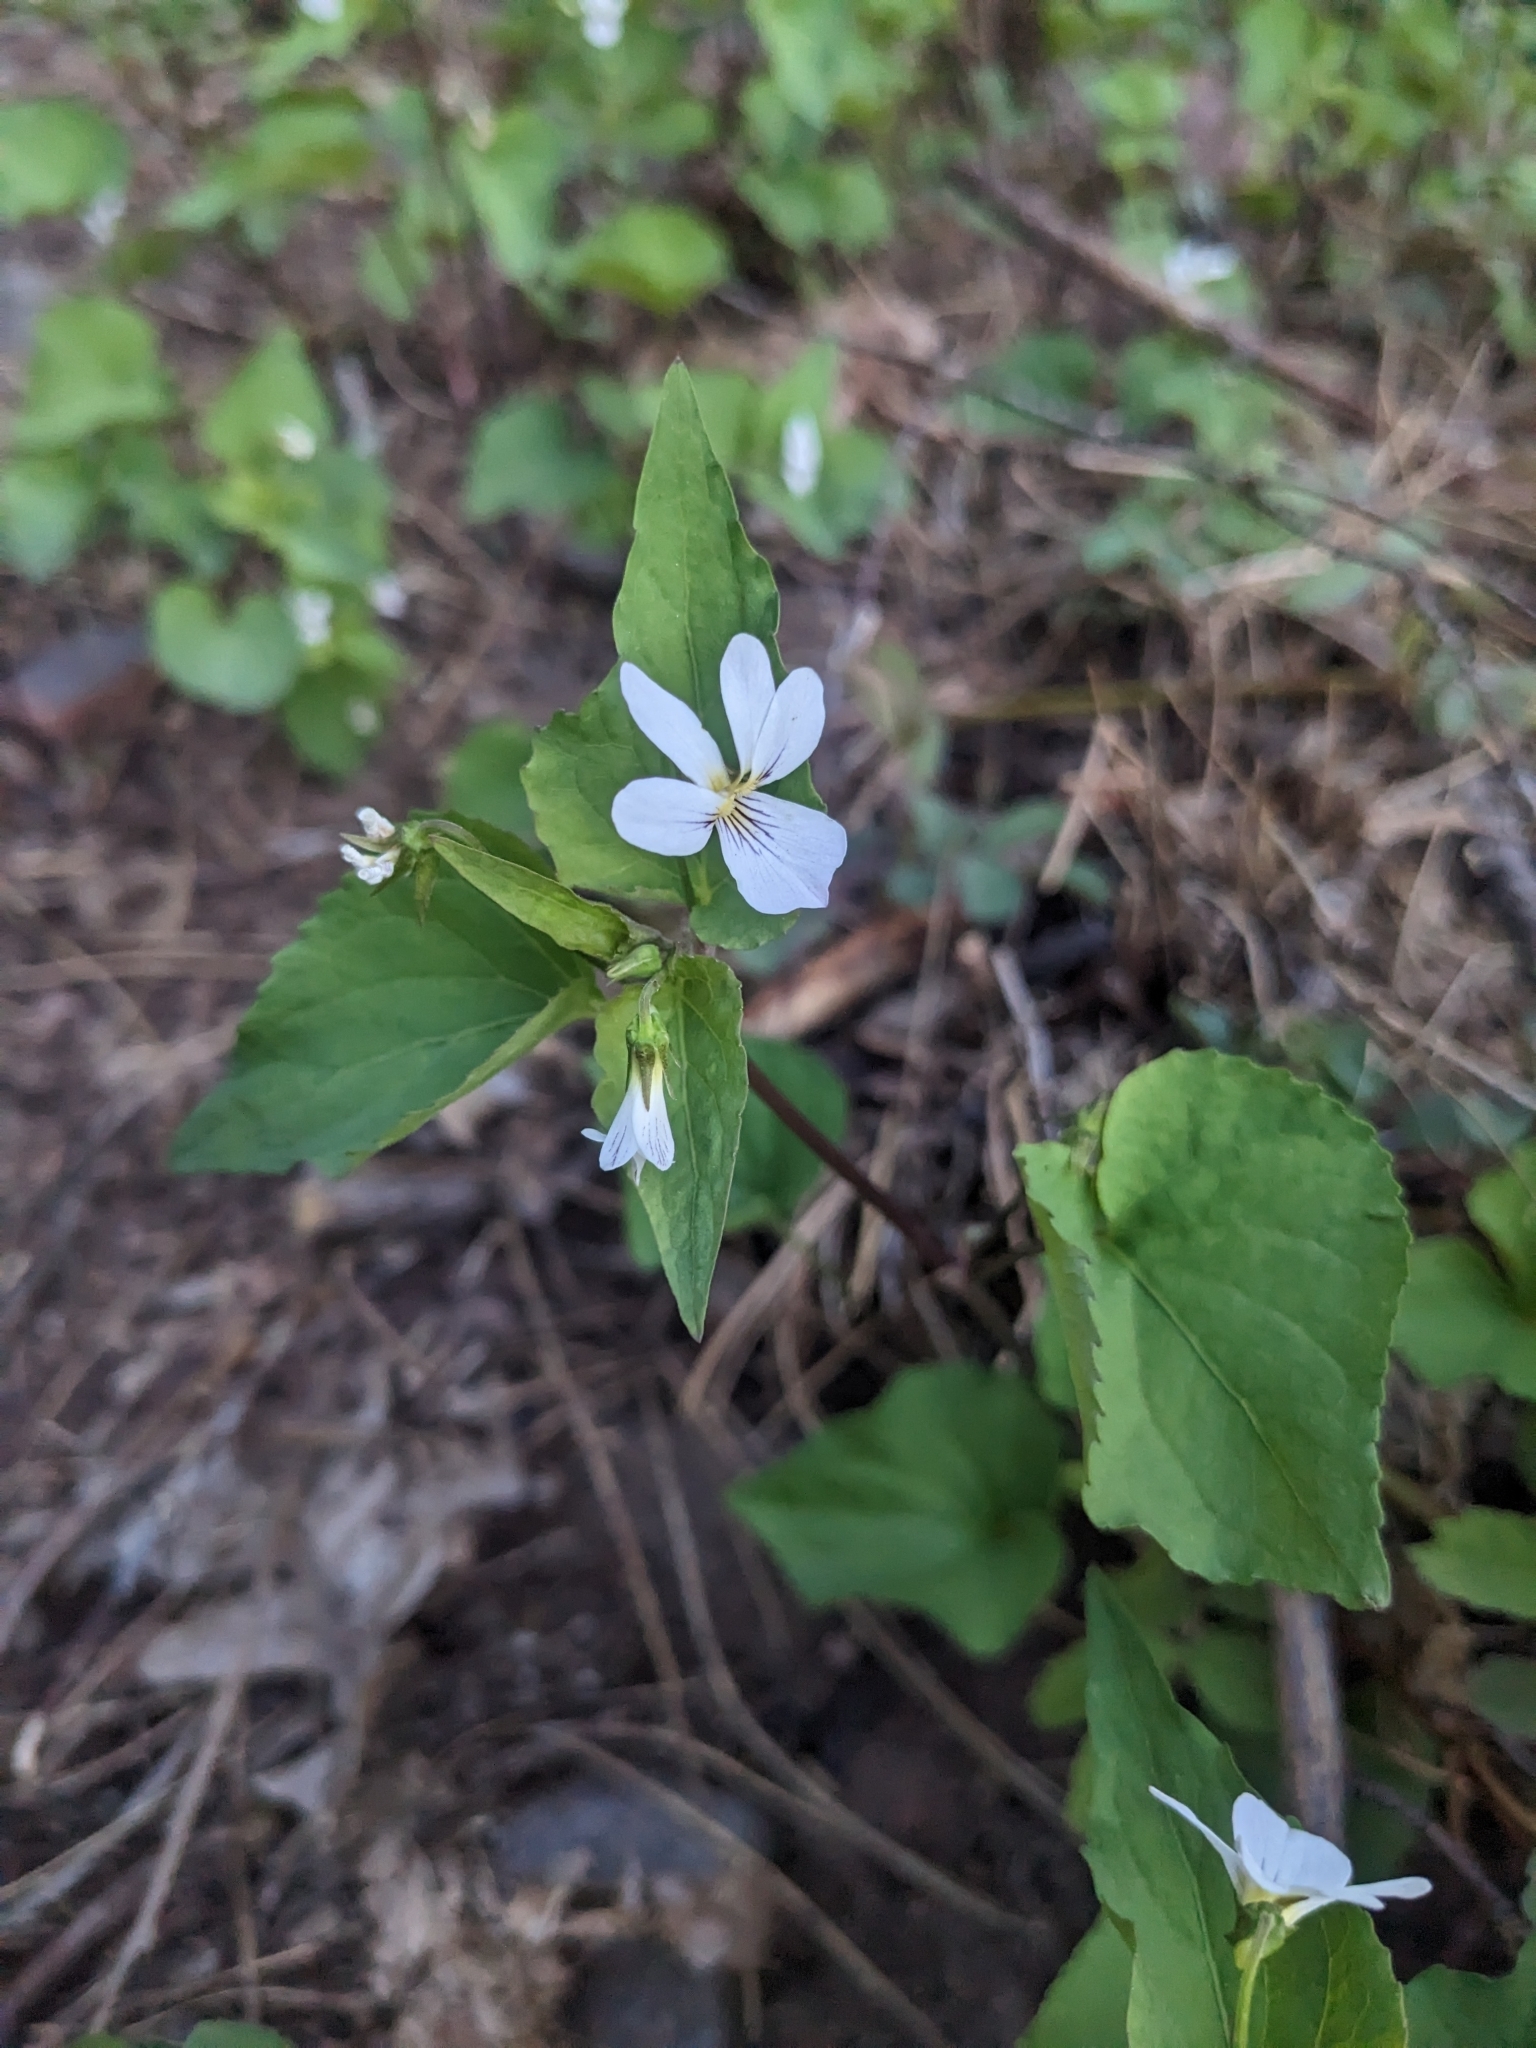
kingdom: Plantae
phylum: Tracheophyta
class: Magnoliopsida
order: Malpighiales
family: Violaceae
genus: Viola
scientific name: Viola canadensis
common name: Canada violet
